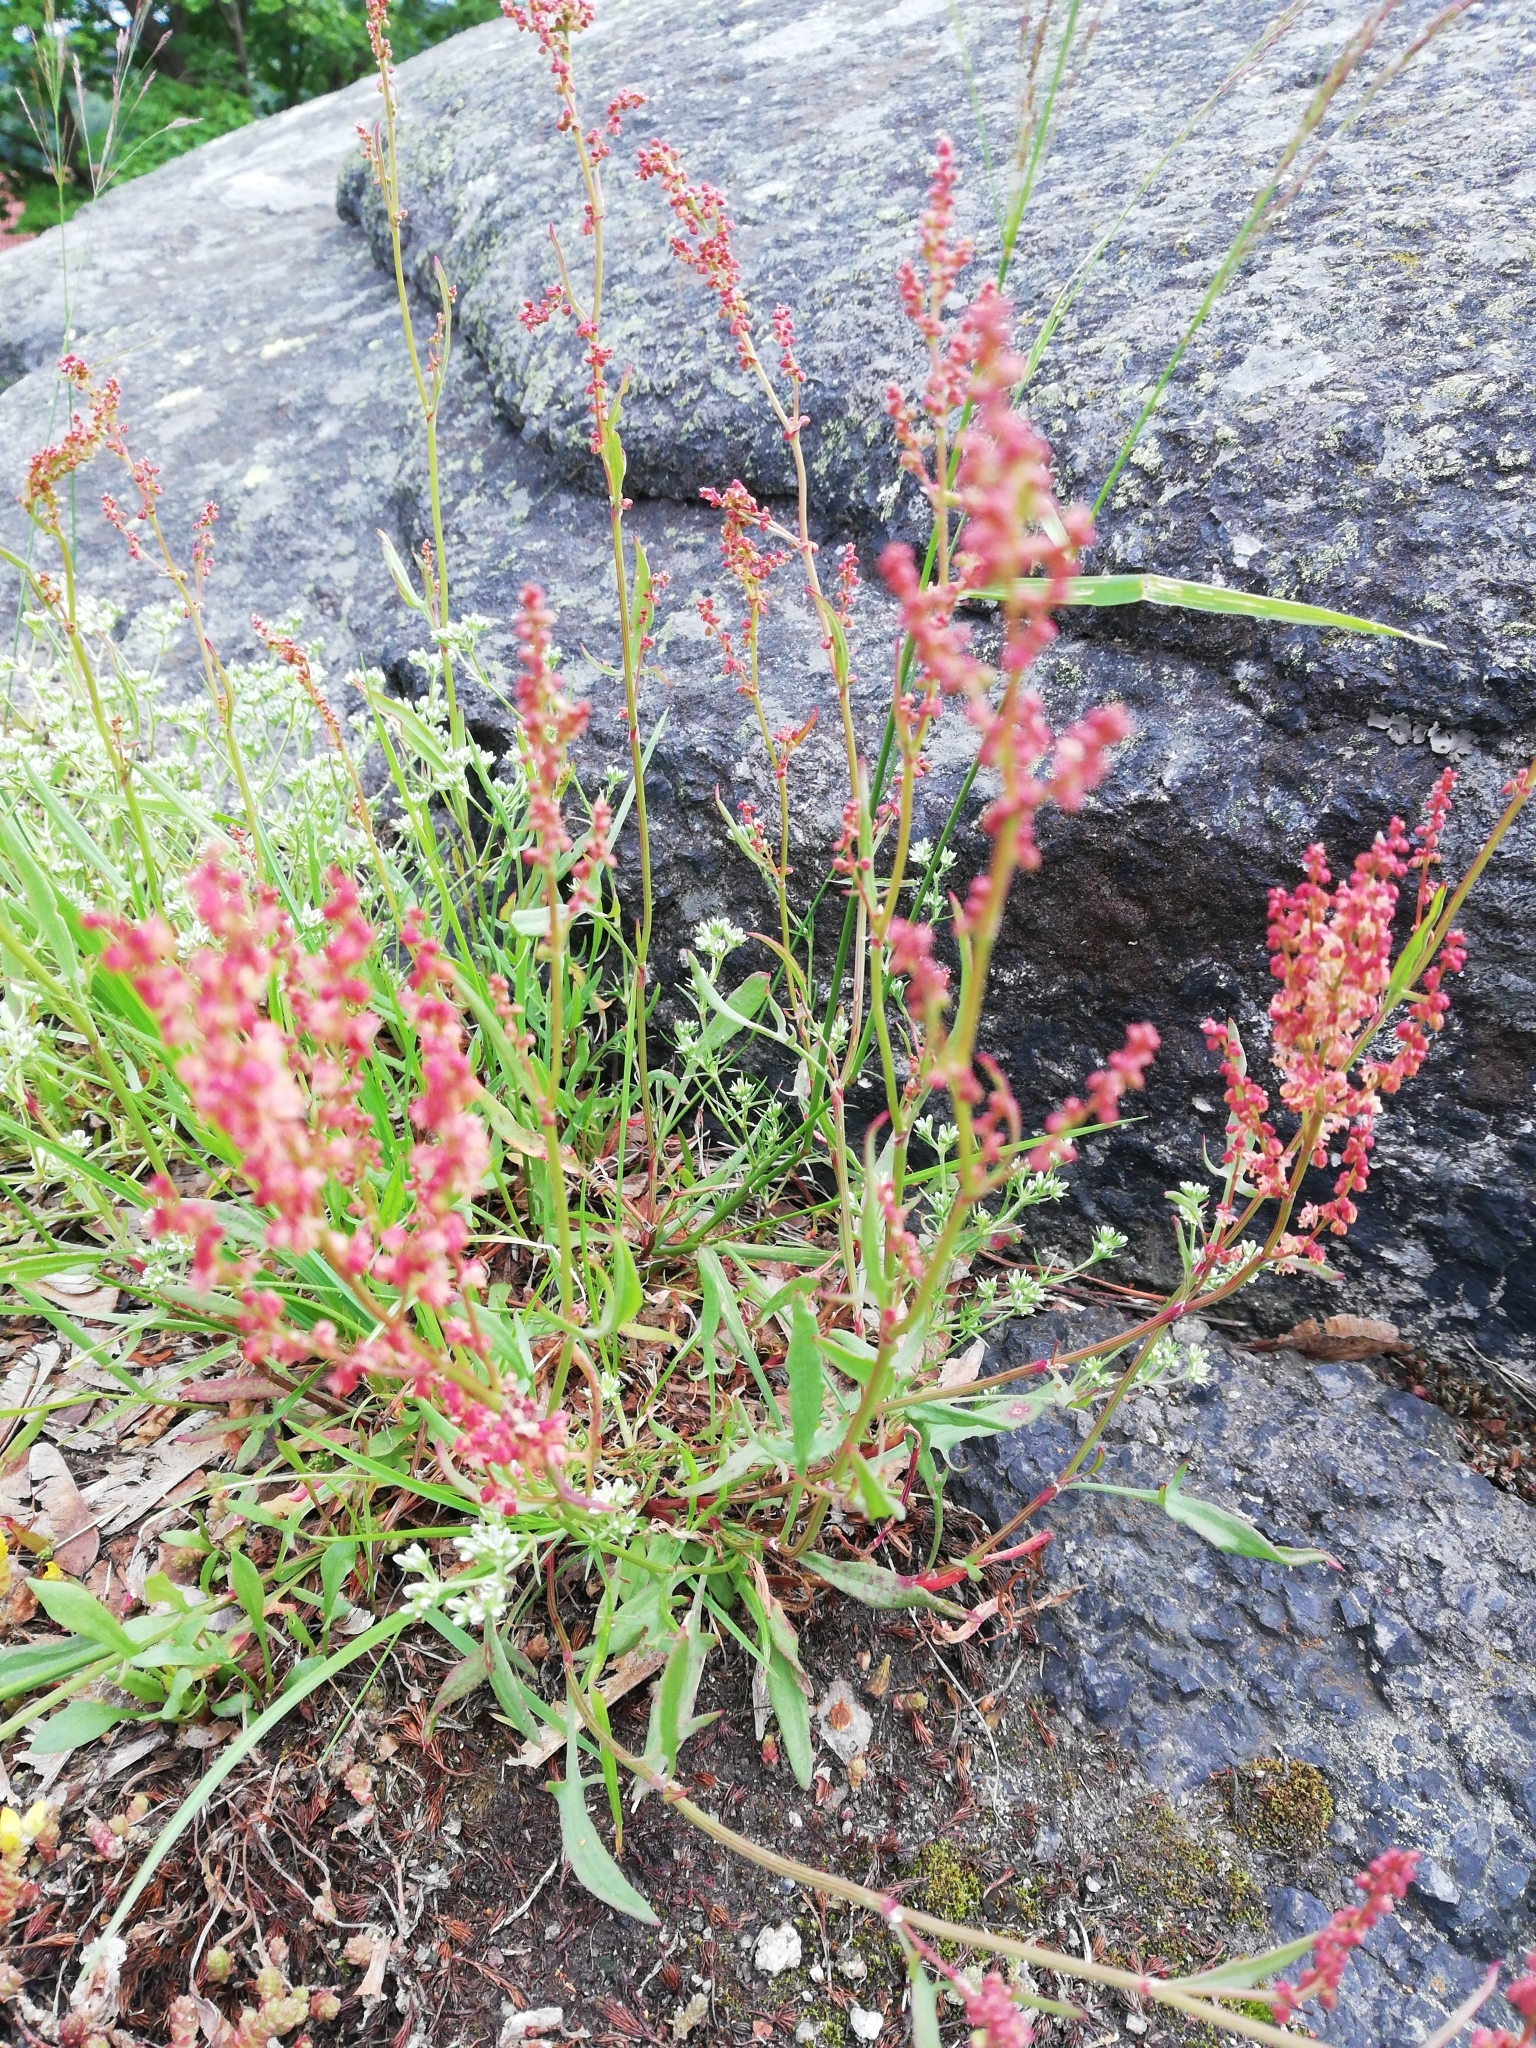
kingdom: Plantae
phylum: Tracheophyta
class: Magnoliopsida
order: Caryophyllales
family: Polygonaceae
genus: Rumex
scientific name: Rumex acetosella
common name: Common sheep sorrel
